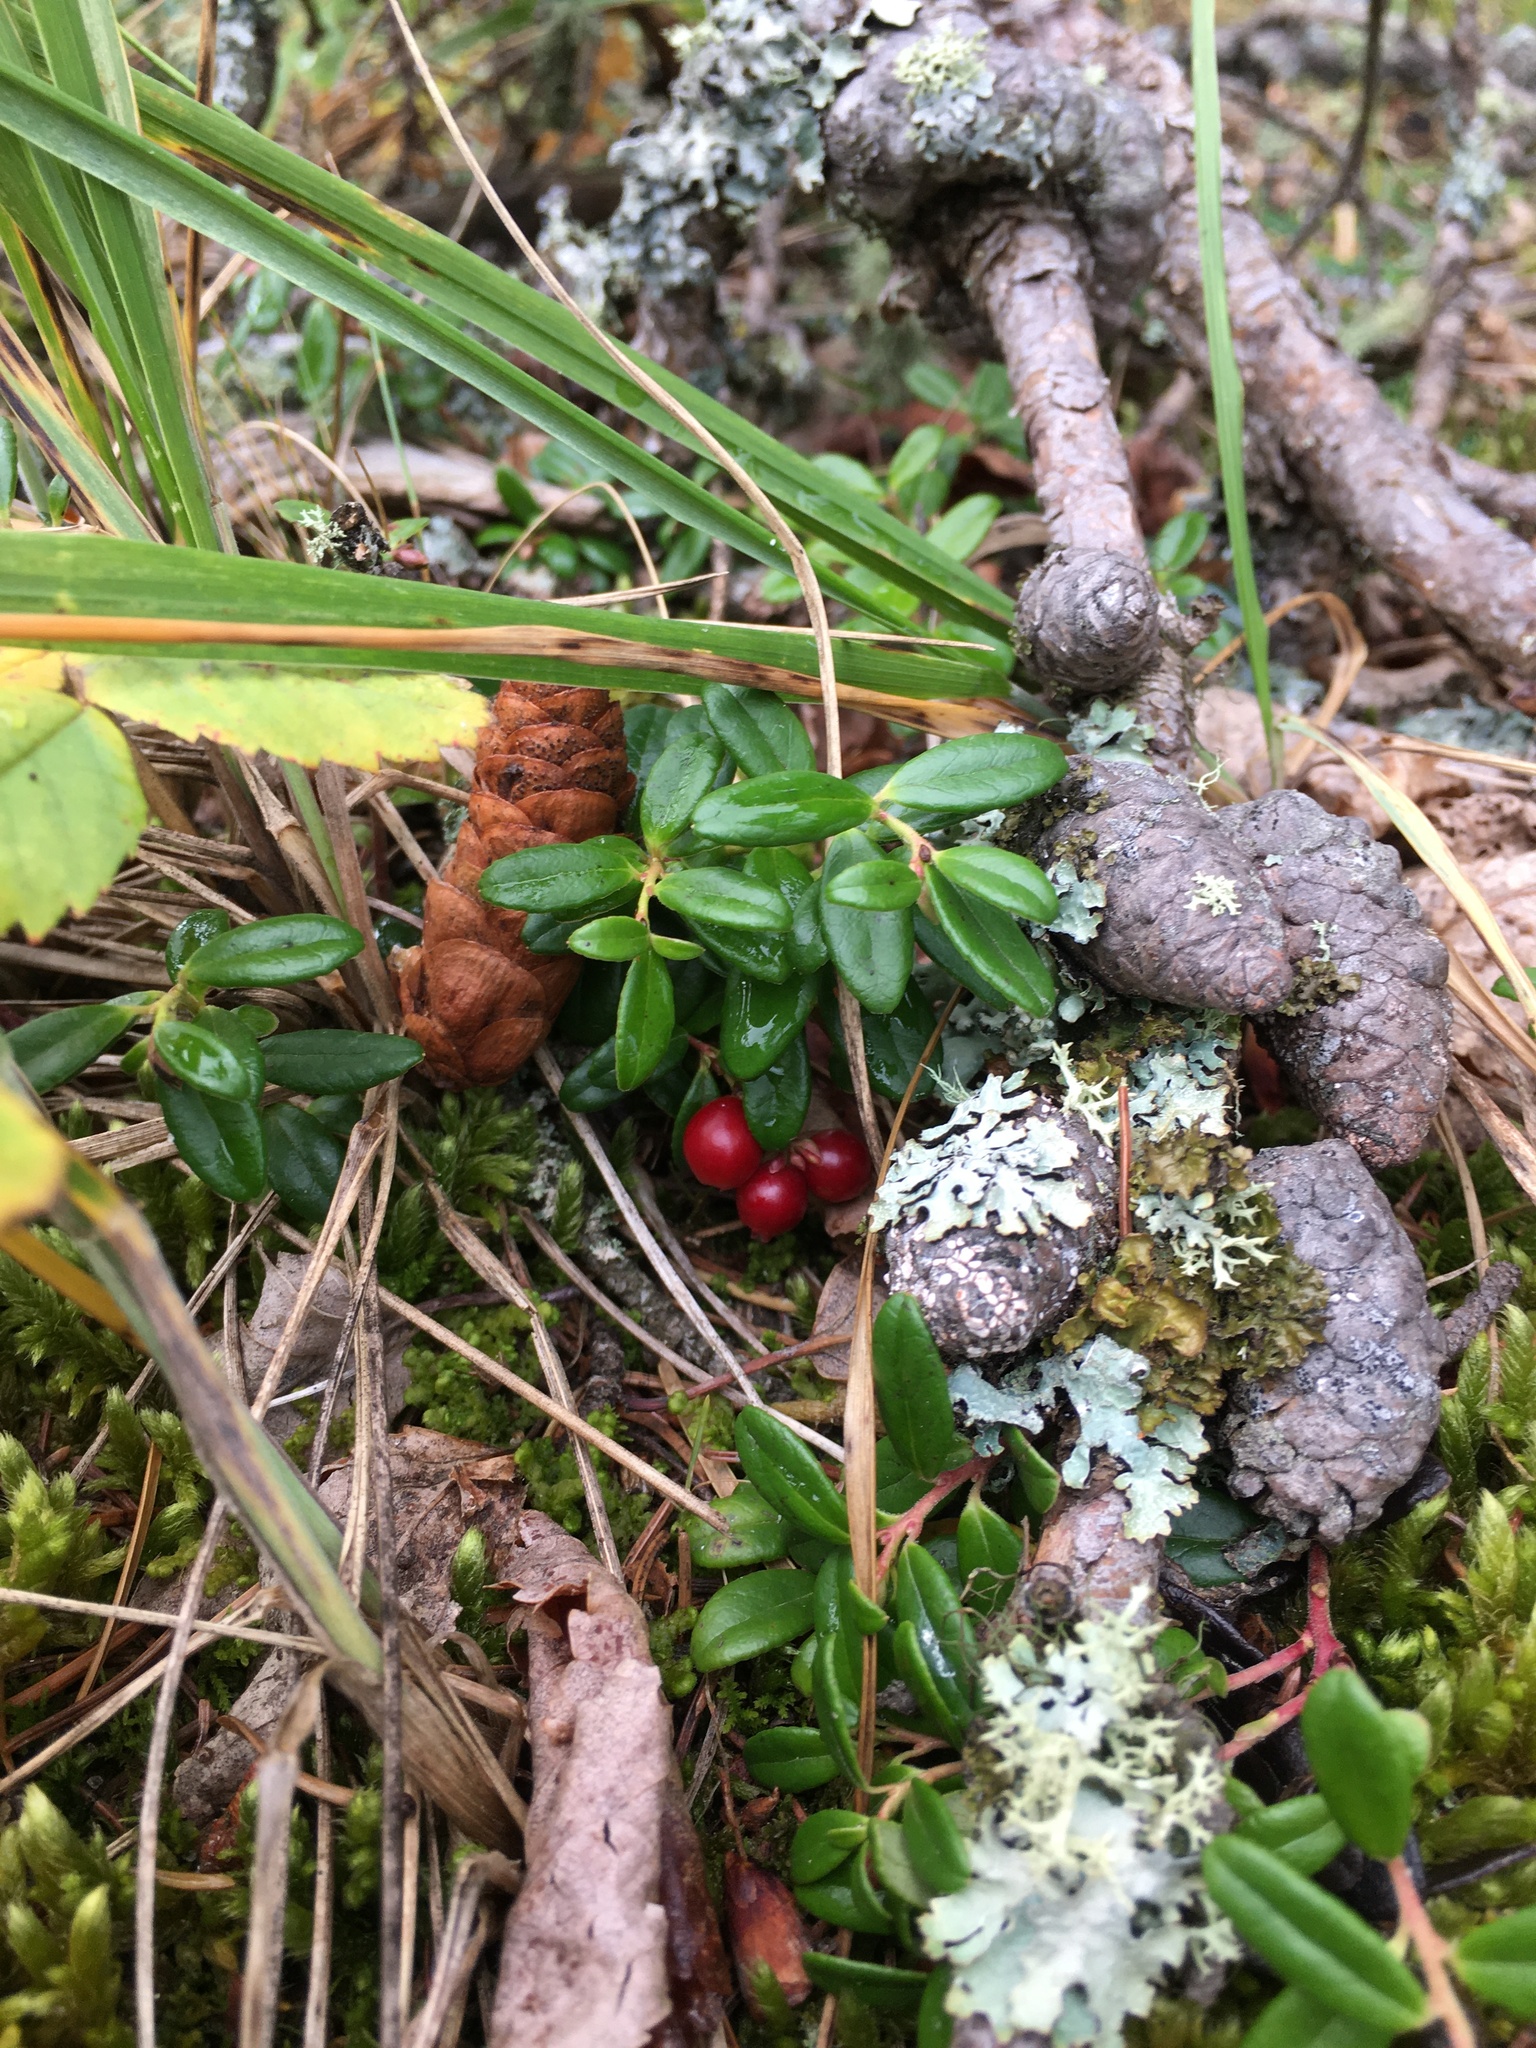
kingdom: Plantae
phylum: Tracheophyta
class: Magnoliopsida
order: Ericales
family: Ericaceae
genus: Vaccinium
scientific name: Vaccinium vitis-idaea
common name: Cowberry
